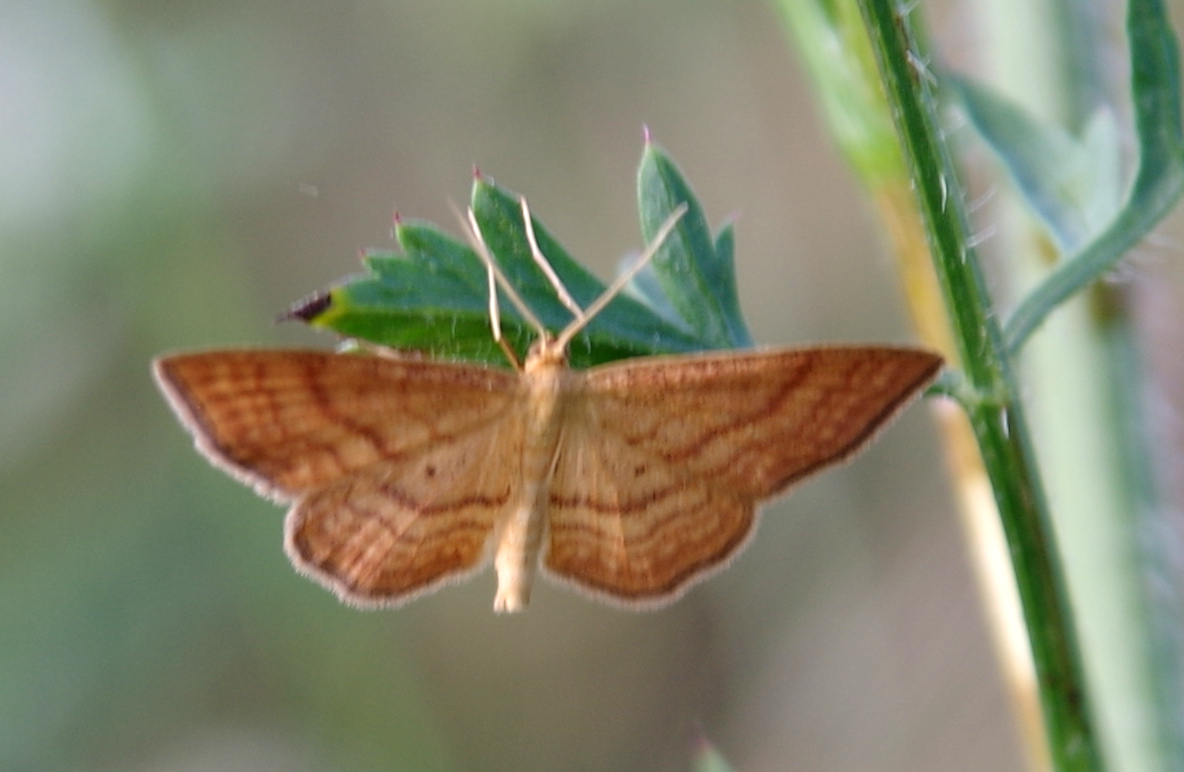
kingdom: Animalia
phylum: Arthropoda
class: Insecta
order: Lepidoptera
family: Geometridae
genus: Idaea
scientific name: Idaea ochrata
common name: Bright wave
